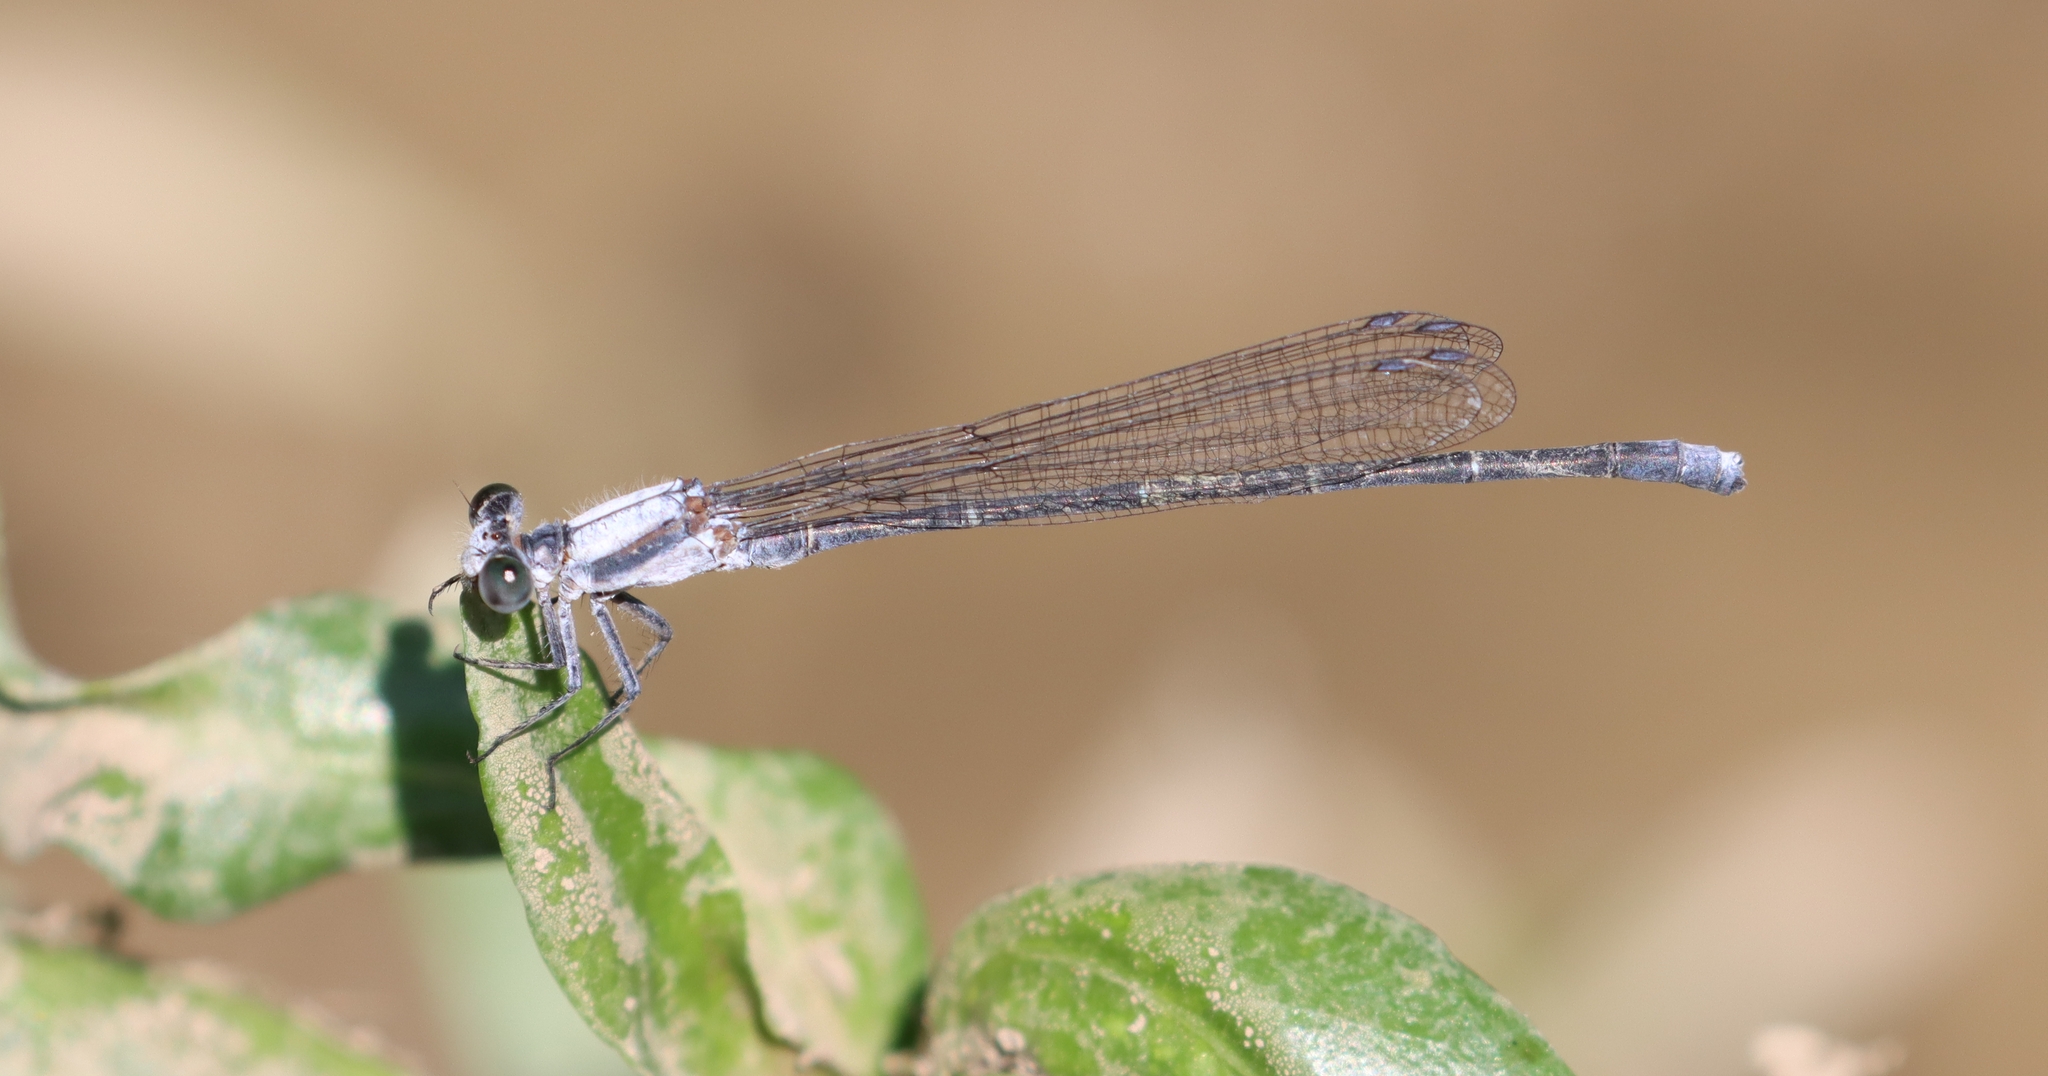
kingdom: Animalia
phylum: Arthropoda
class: Insecta
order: Odonata
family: Coenagrionidae
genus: Argia
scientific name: Argia moesta
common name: Powdered dancer
